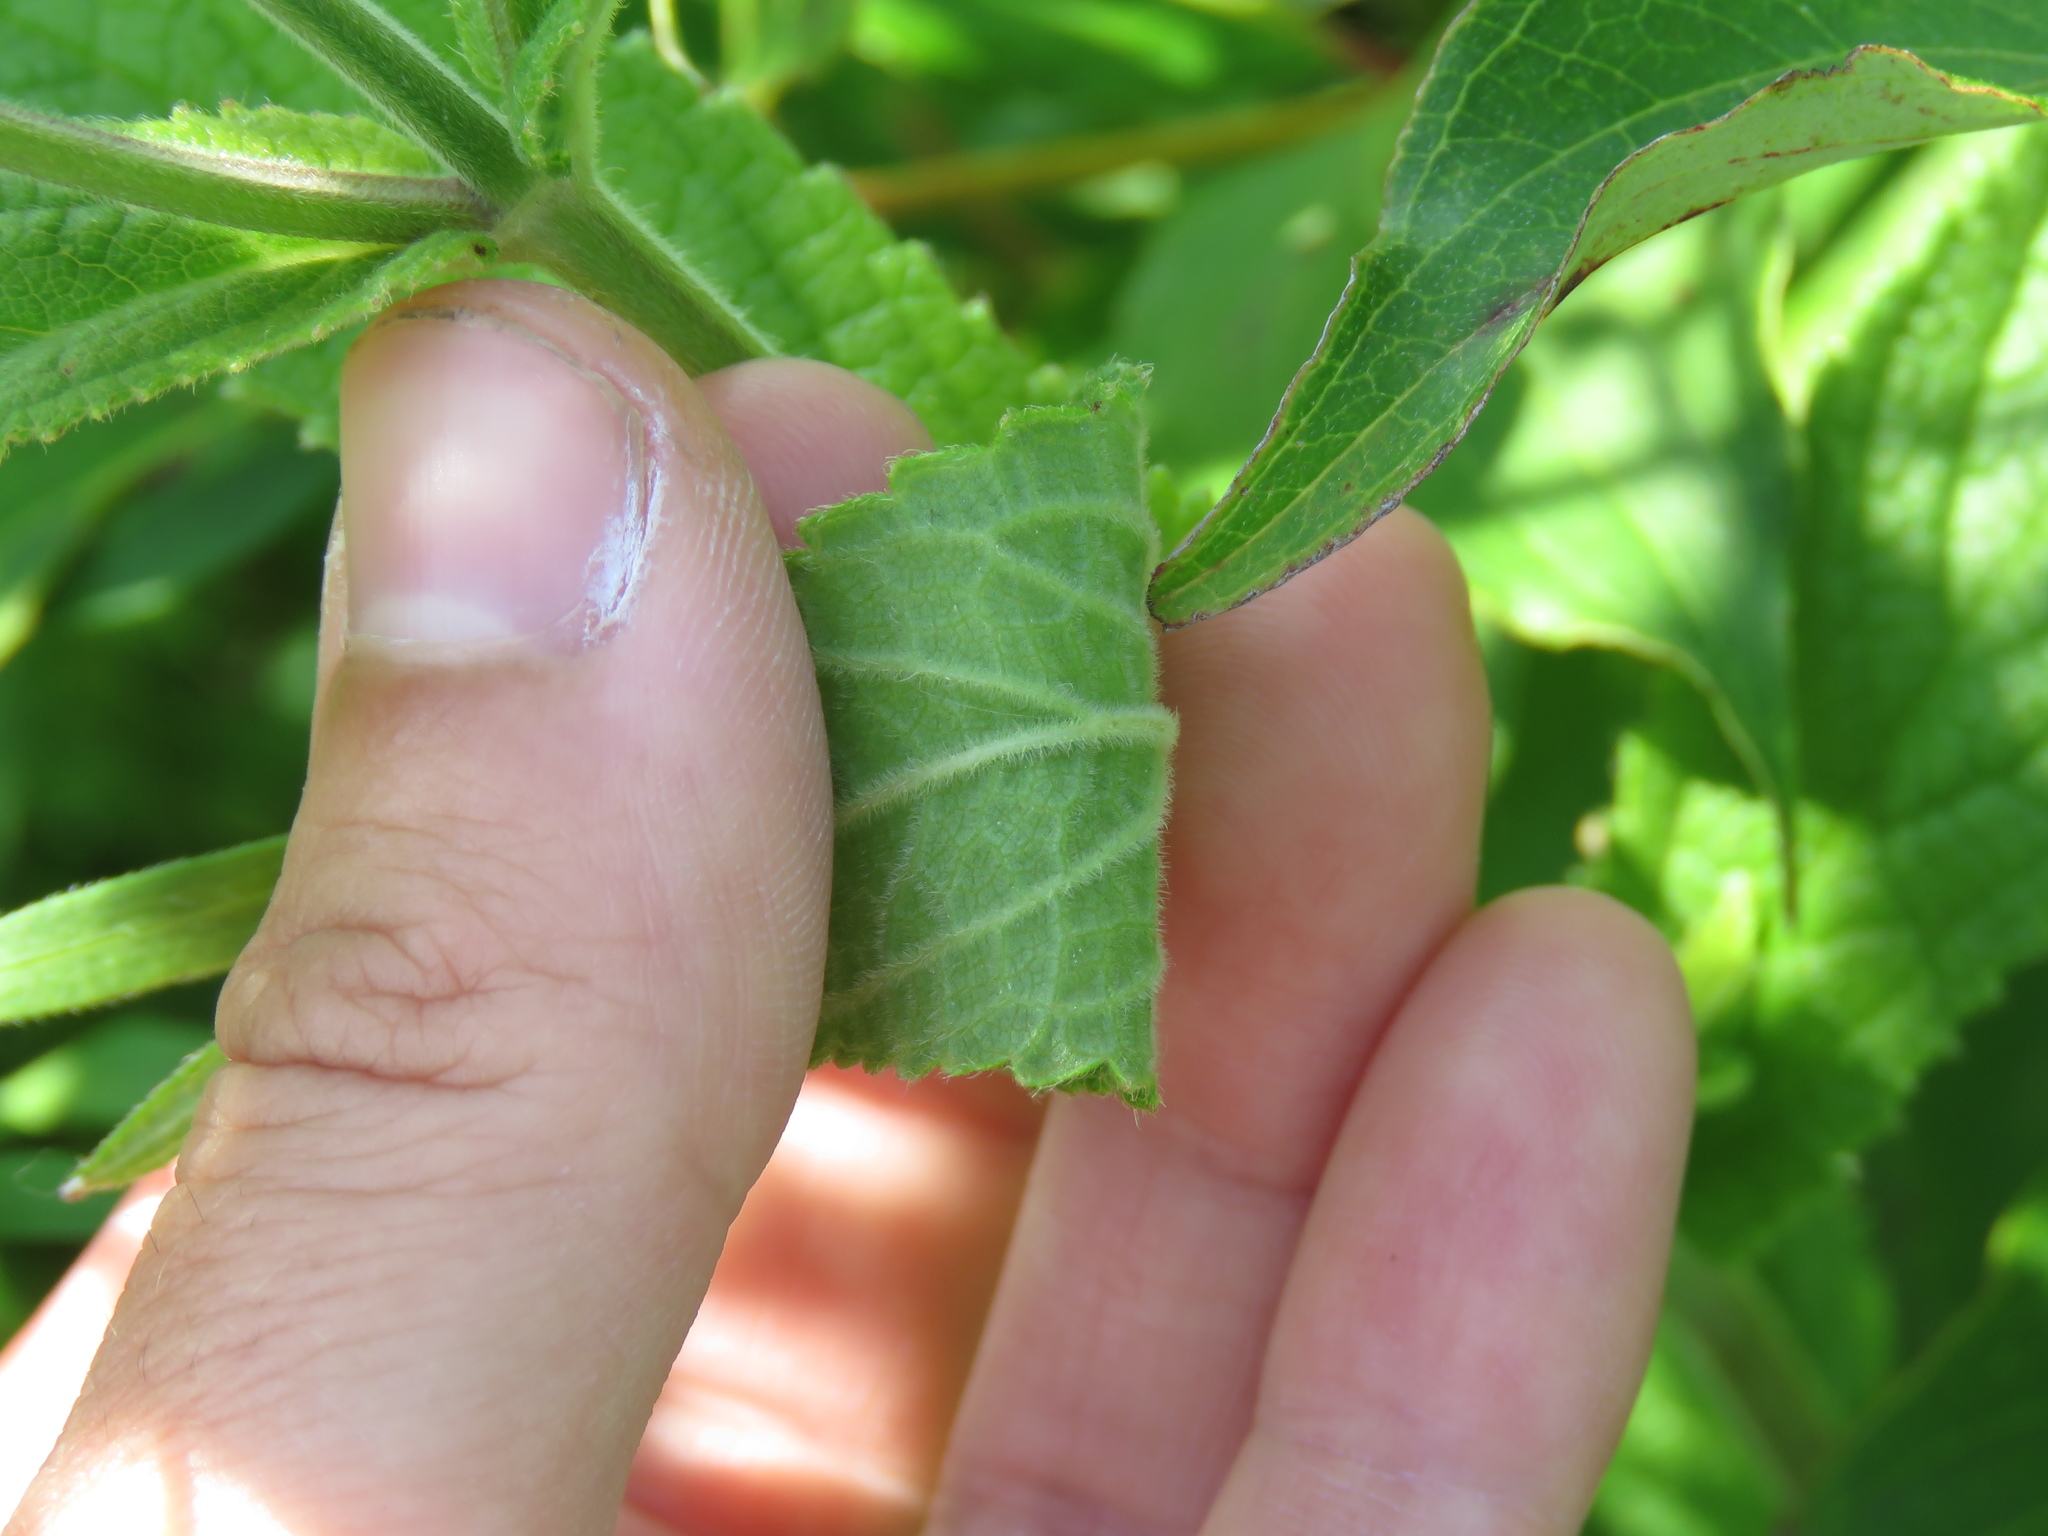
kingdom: Plantae
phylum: Tracheophyta
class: Magnoliopsida
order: Lamiales
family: Lamiaceae
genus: Stachys
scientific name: Stachys pilosa
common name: Hairy hedge-nettle
